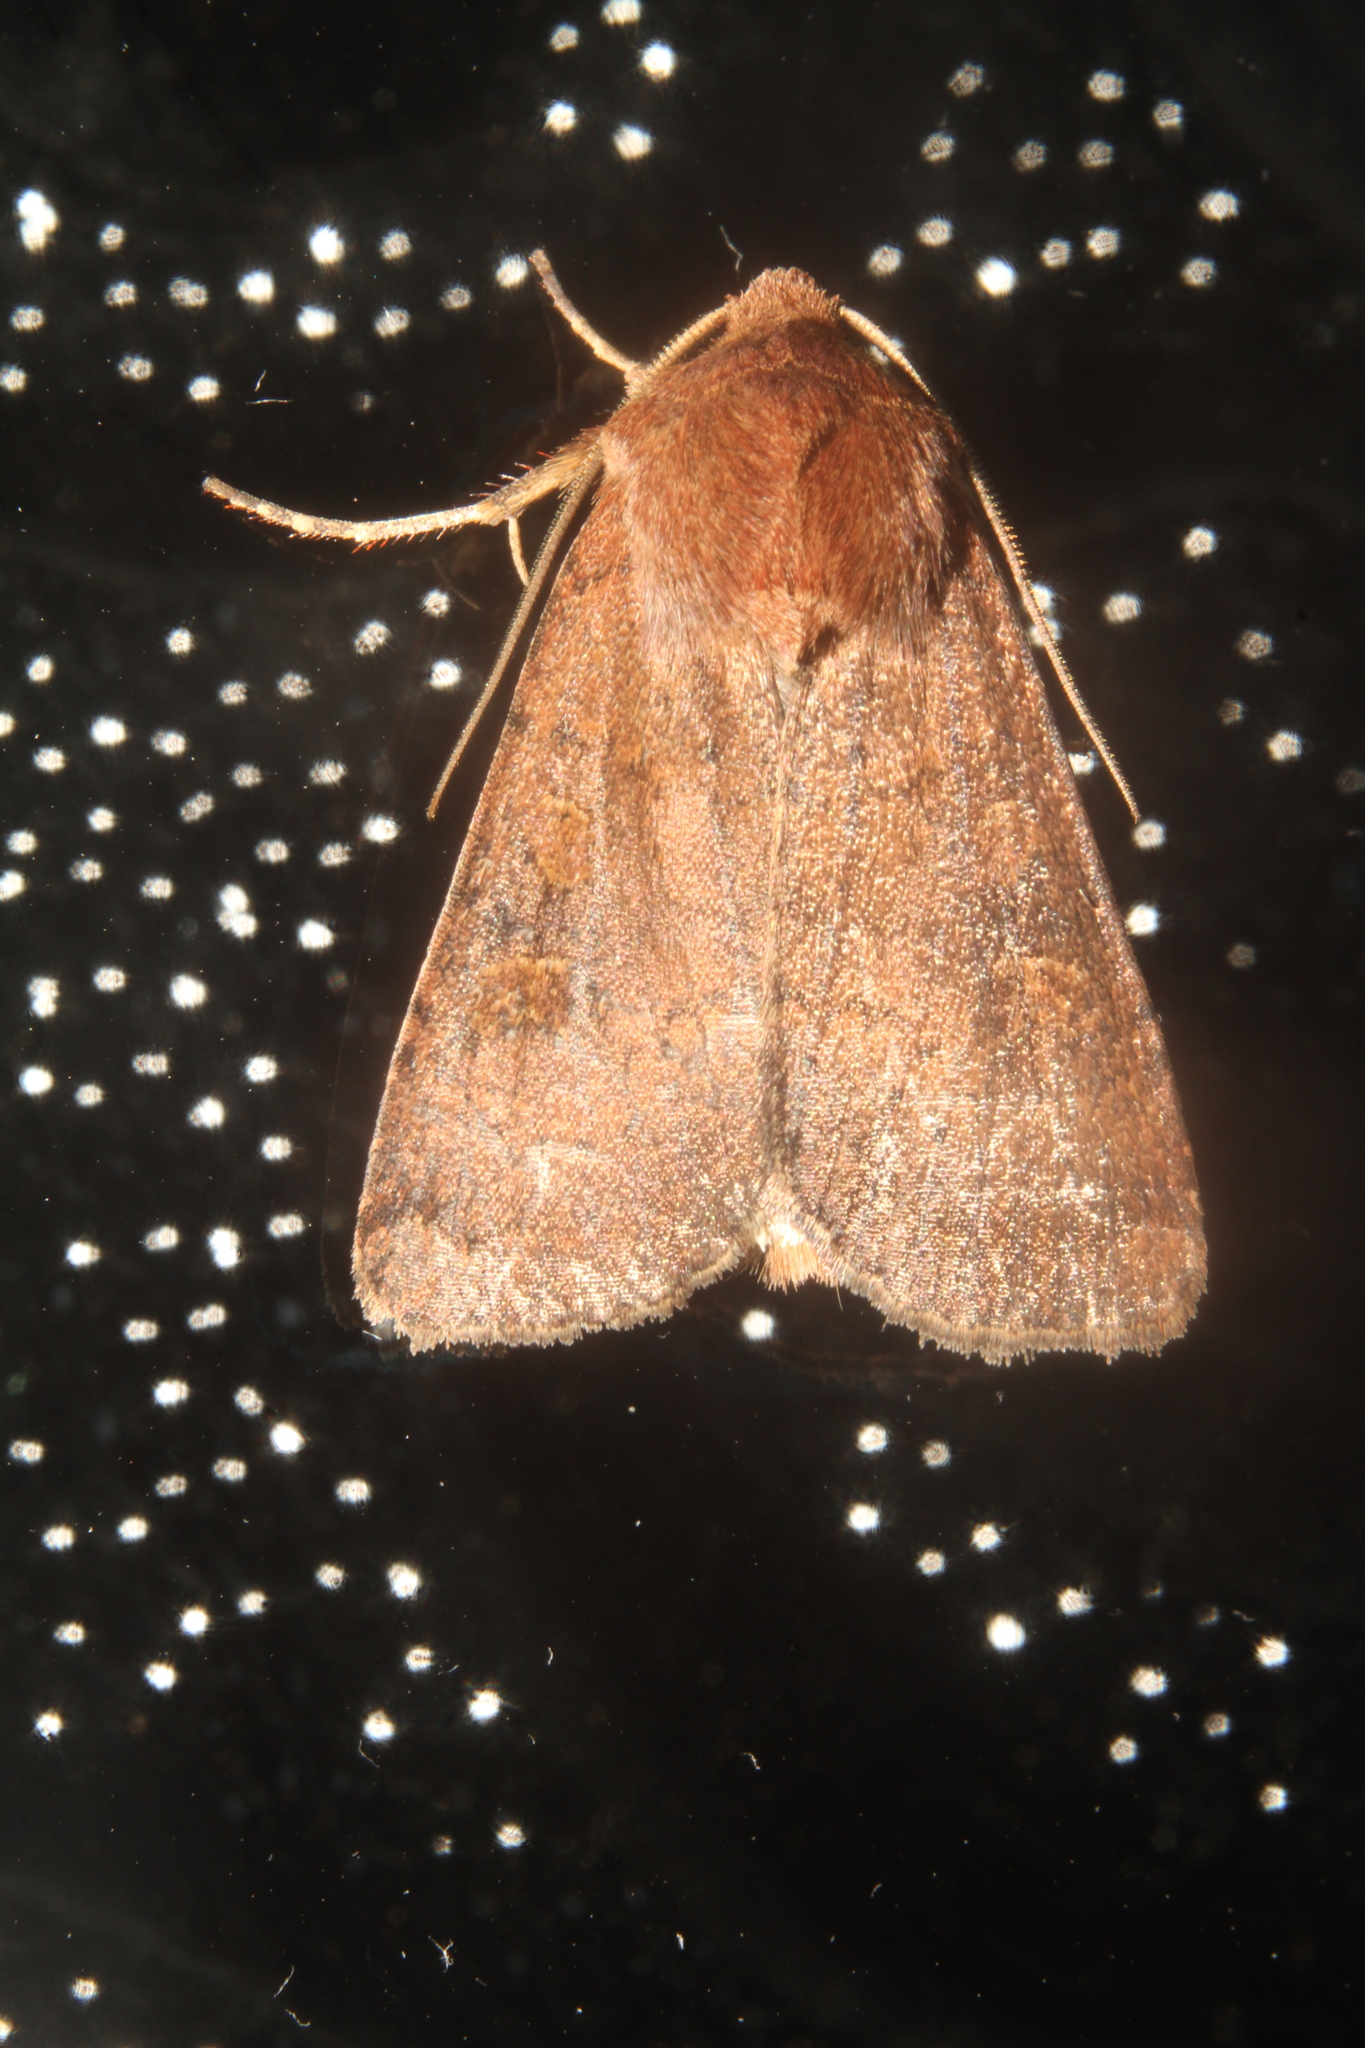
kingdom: Animalia
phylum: Arthropoda
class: Insecta
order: Lepidoptera
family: Noctuidae
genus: Xestia
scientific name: Xestia xanthographa
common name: Square-spot rustic
